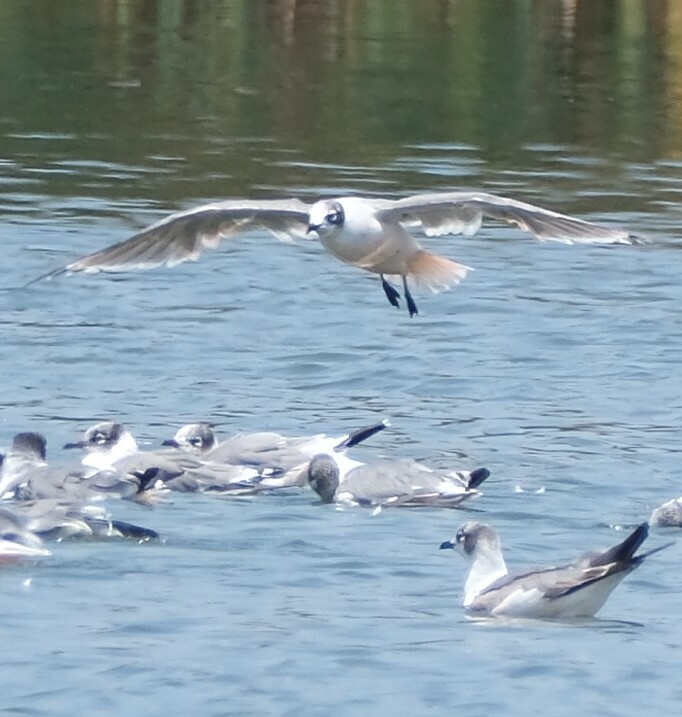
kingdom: Animalia
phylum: Chordata
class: Aves
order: Charadriiformes
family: Laridae
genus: Leucophaeus
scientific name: Leucophaeus pipixcan
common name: Franklin's gull
